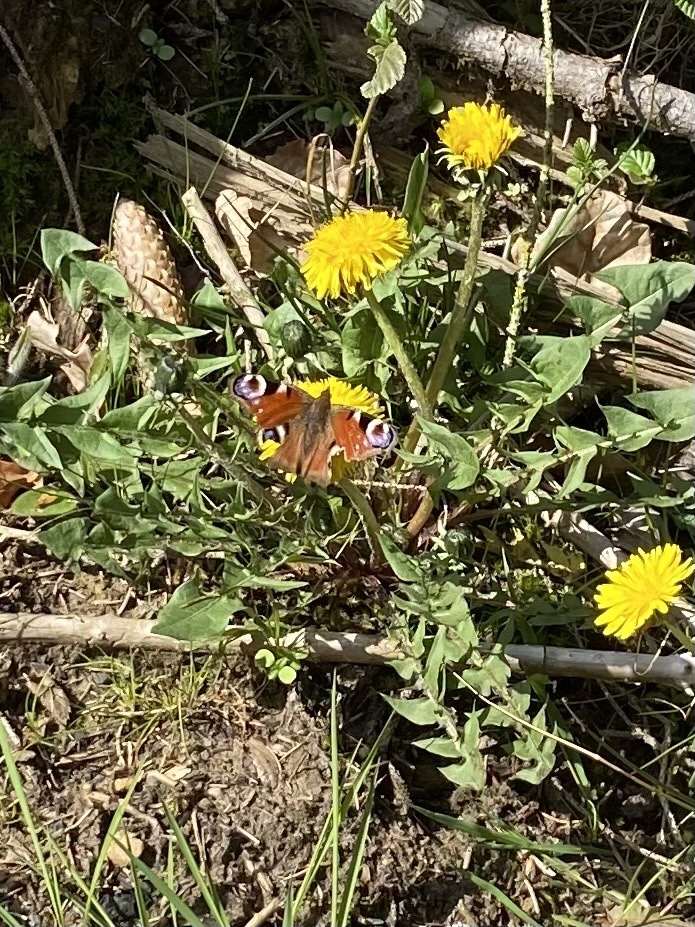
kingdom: Animalia
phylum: Arthropoda
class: Insecta
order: Lepidoptera
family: Nymphalidae
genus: Aglais
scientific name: Aglais io
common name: Peacock
